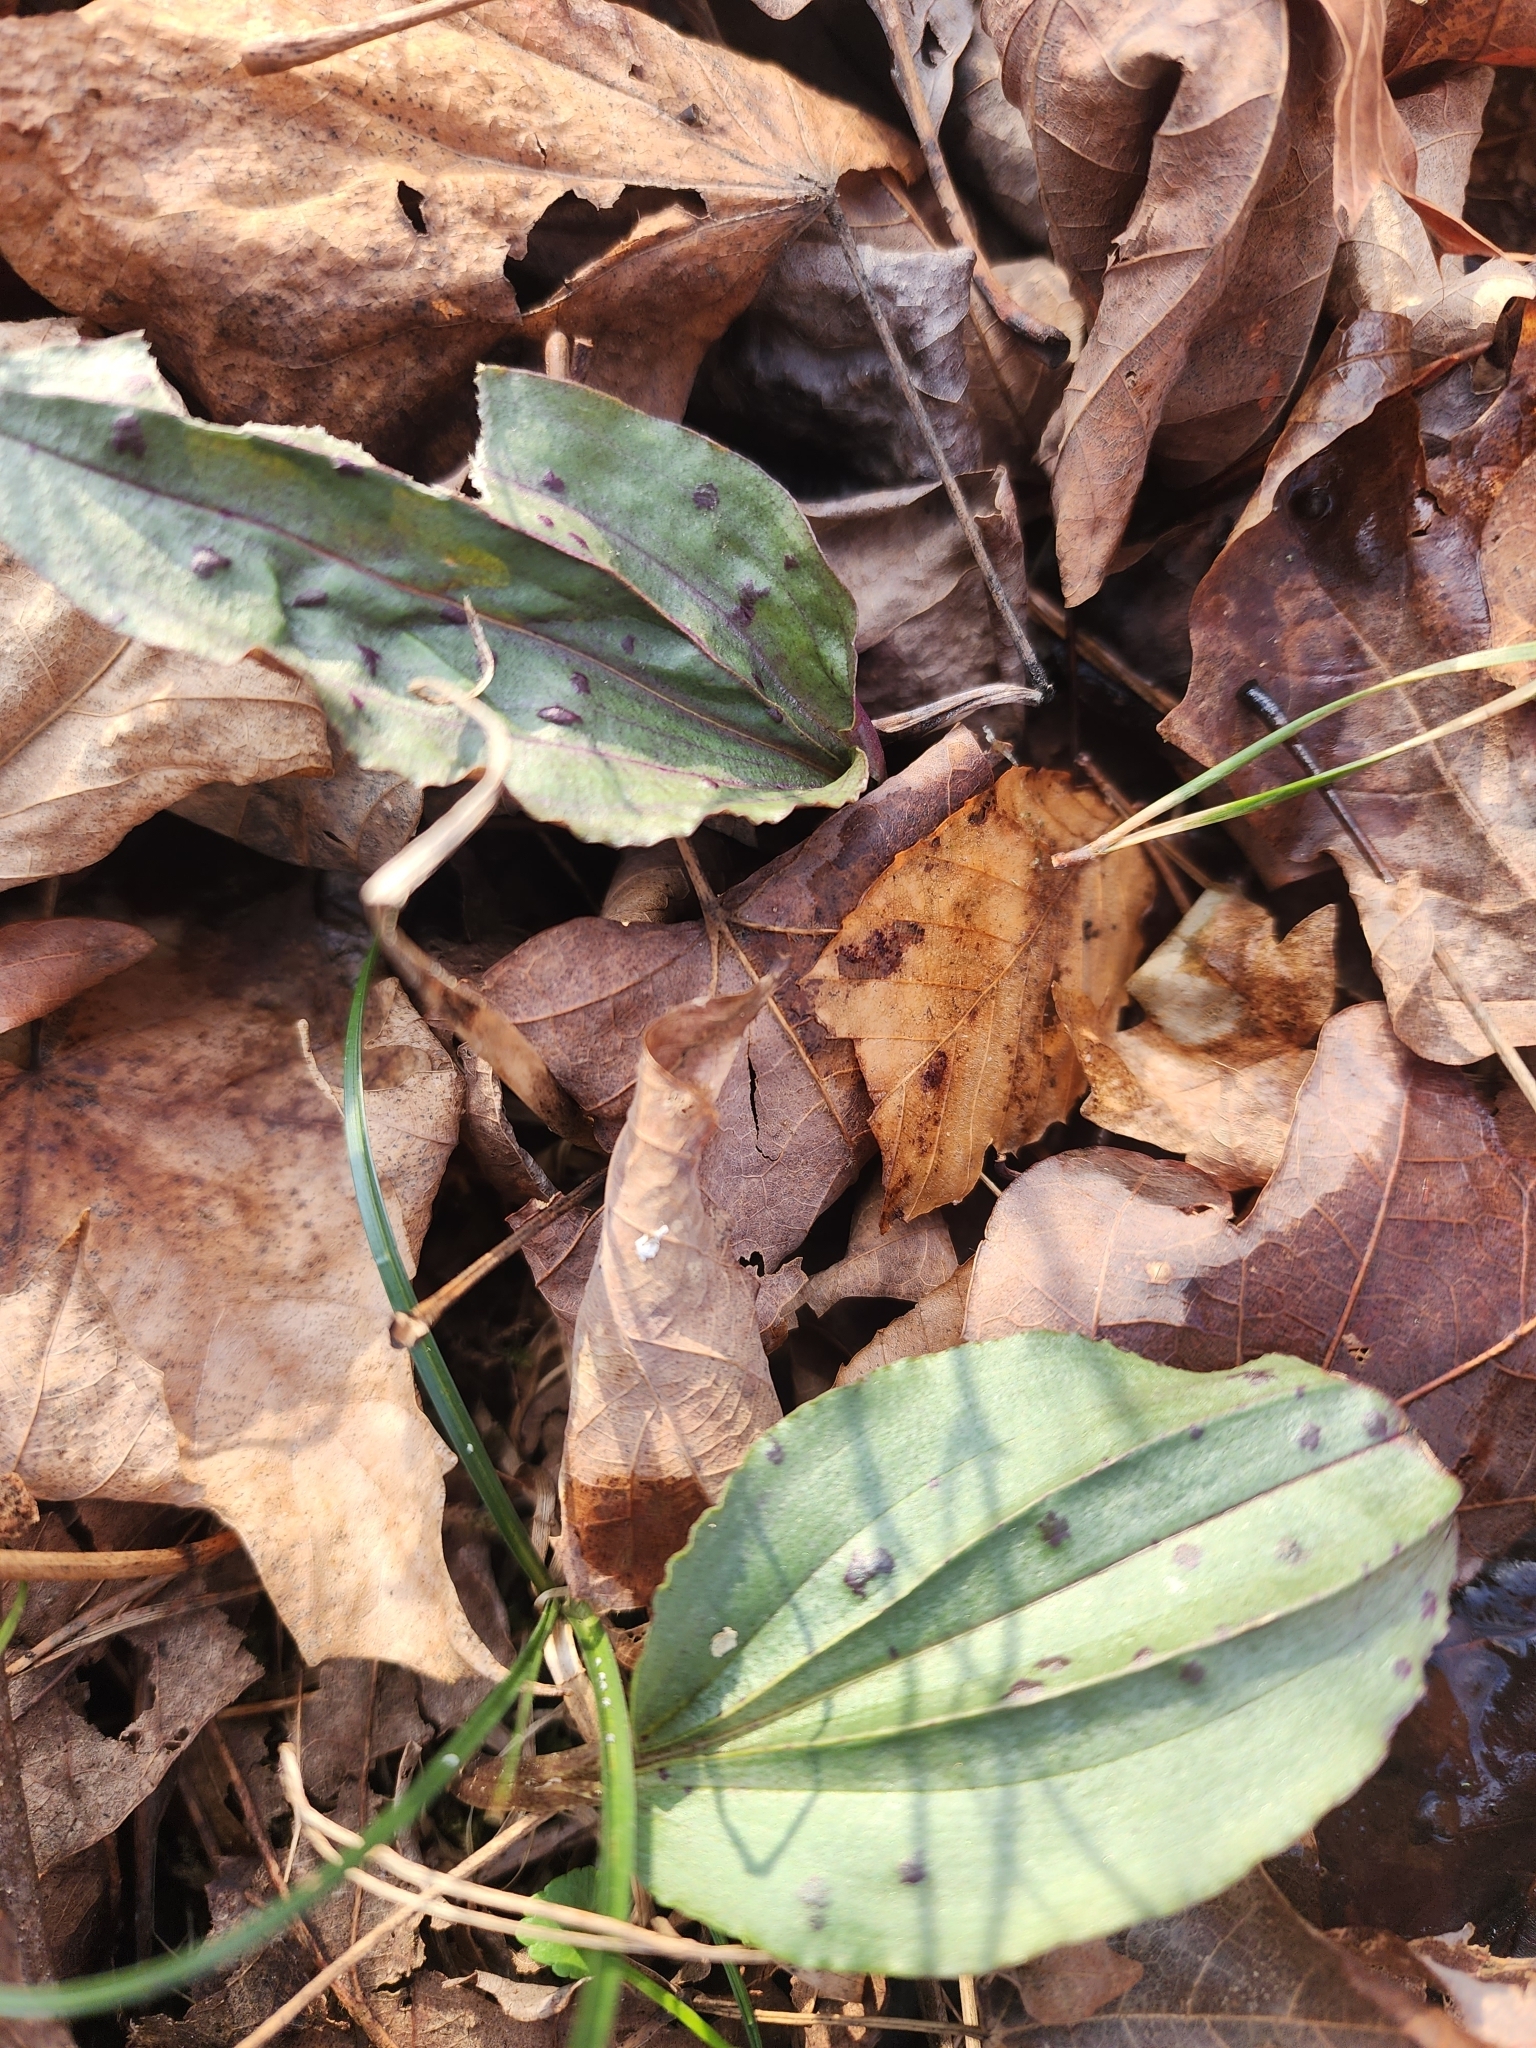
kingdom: Plantae
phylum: Tracheophyta
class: Liliopsida
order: Asparagales
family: Orchidaceae
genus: Tipularia
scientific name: Tipularia discolor
